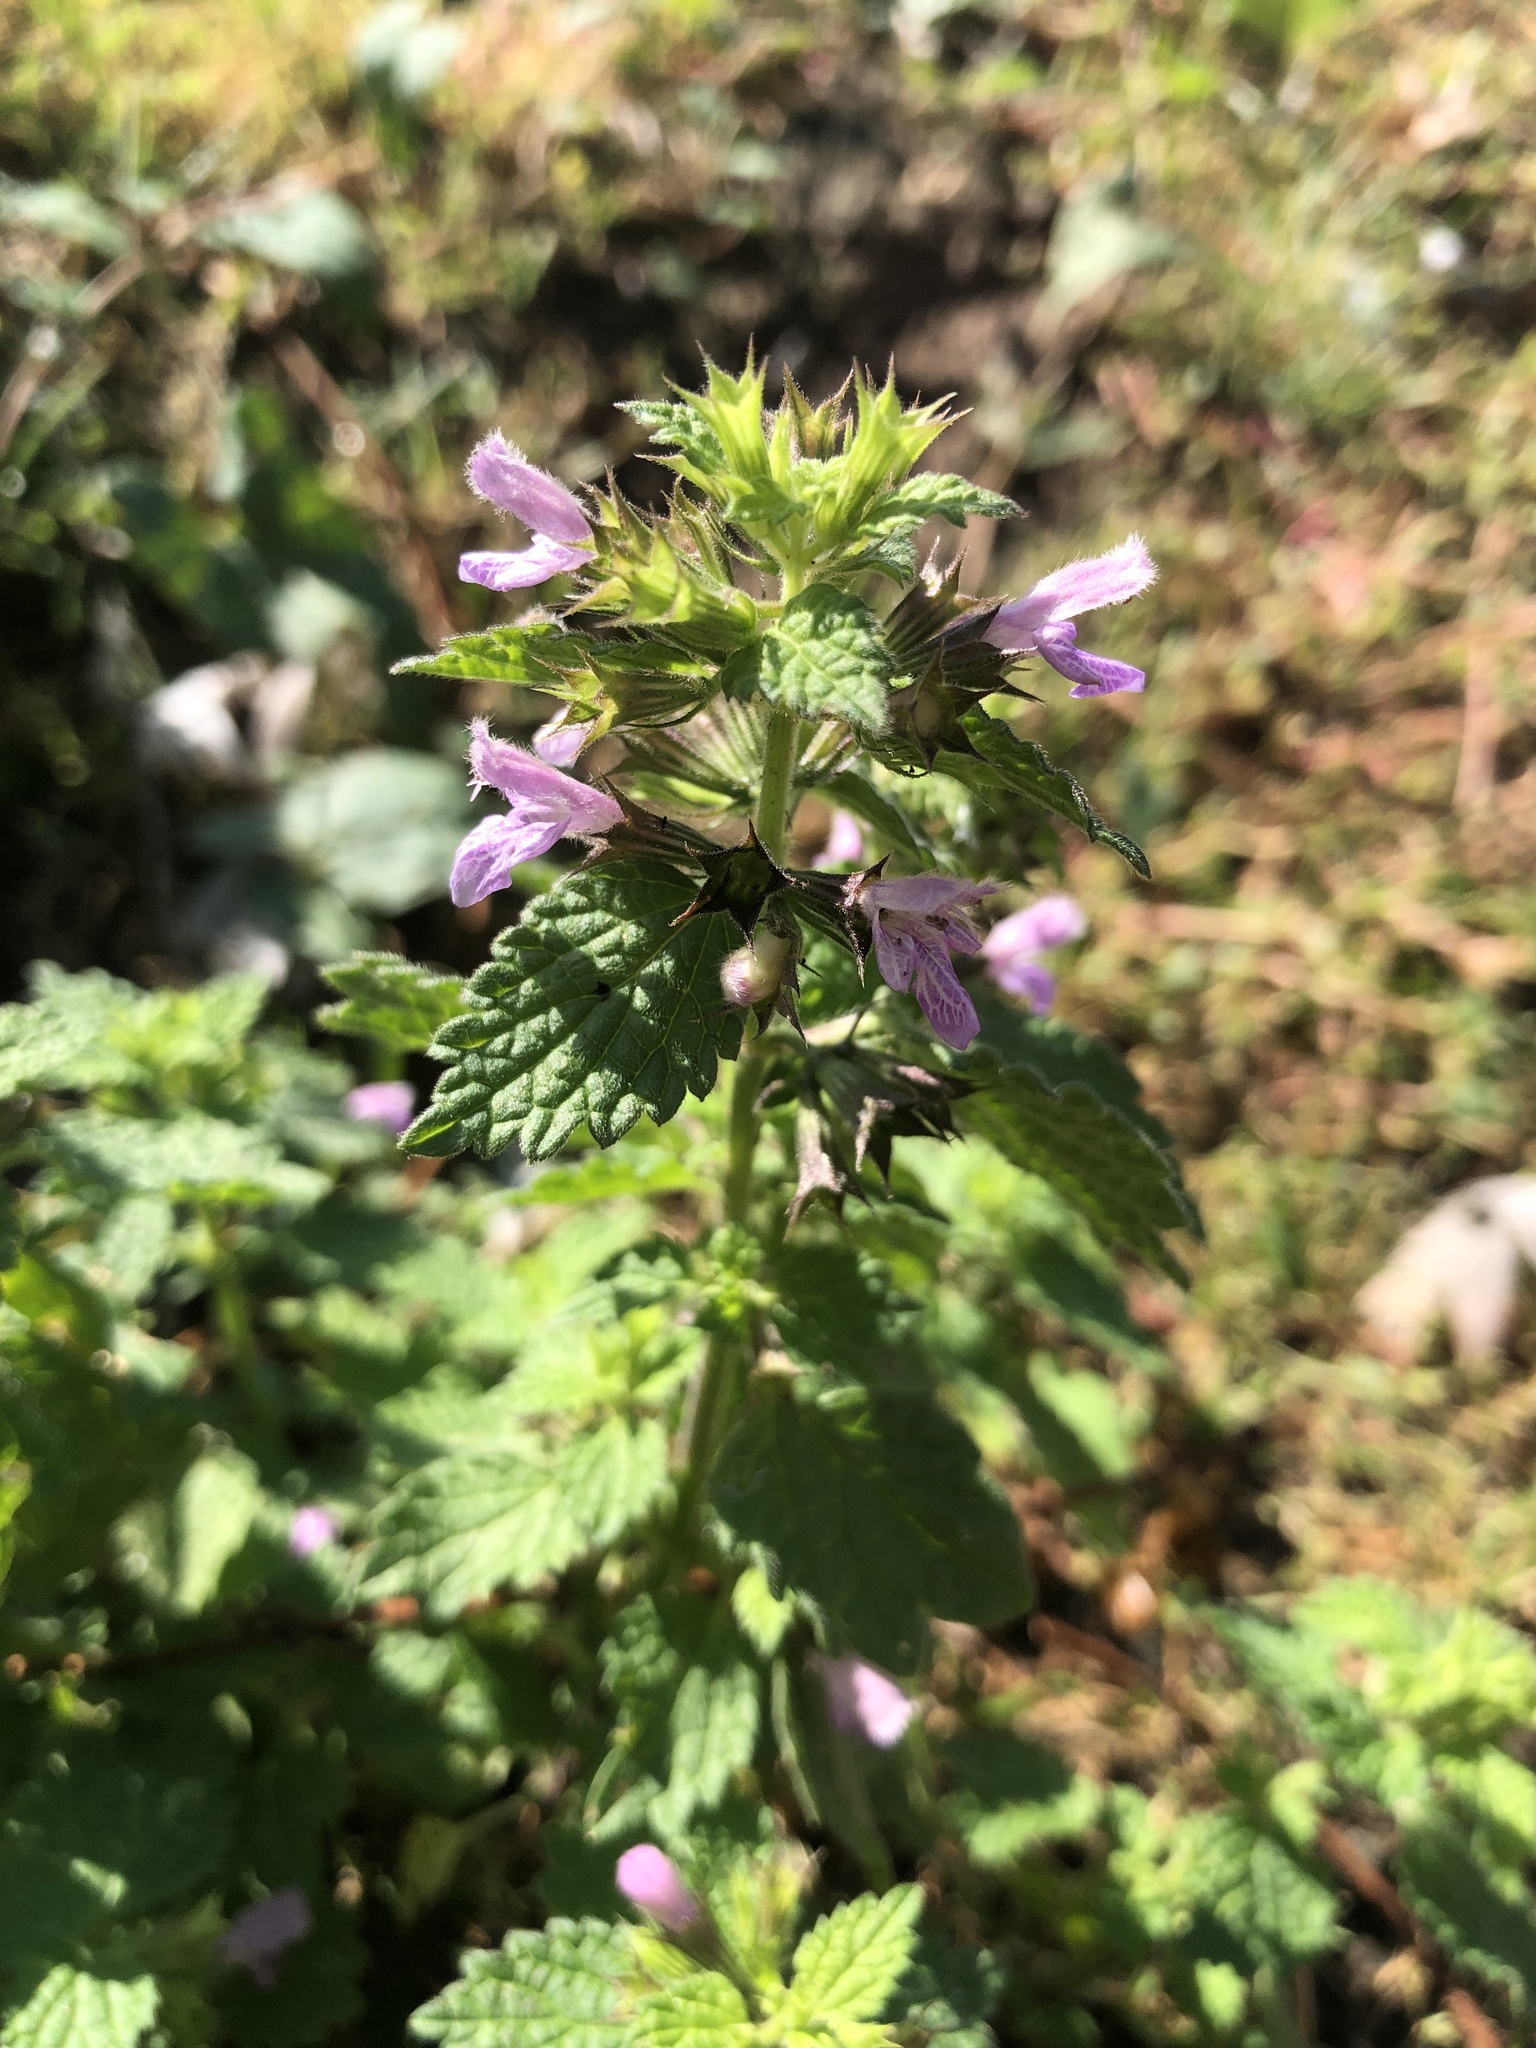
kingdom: Plantae
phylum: Tracheophyta
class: Magnoliopsida
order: Lamiales
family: Lamiaceae
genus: Ballota
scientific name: Ballota nigra
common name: Black horehound
